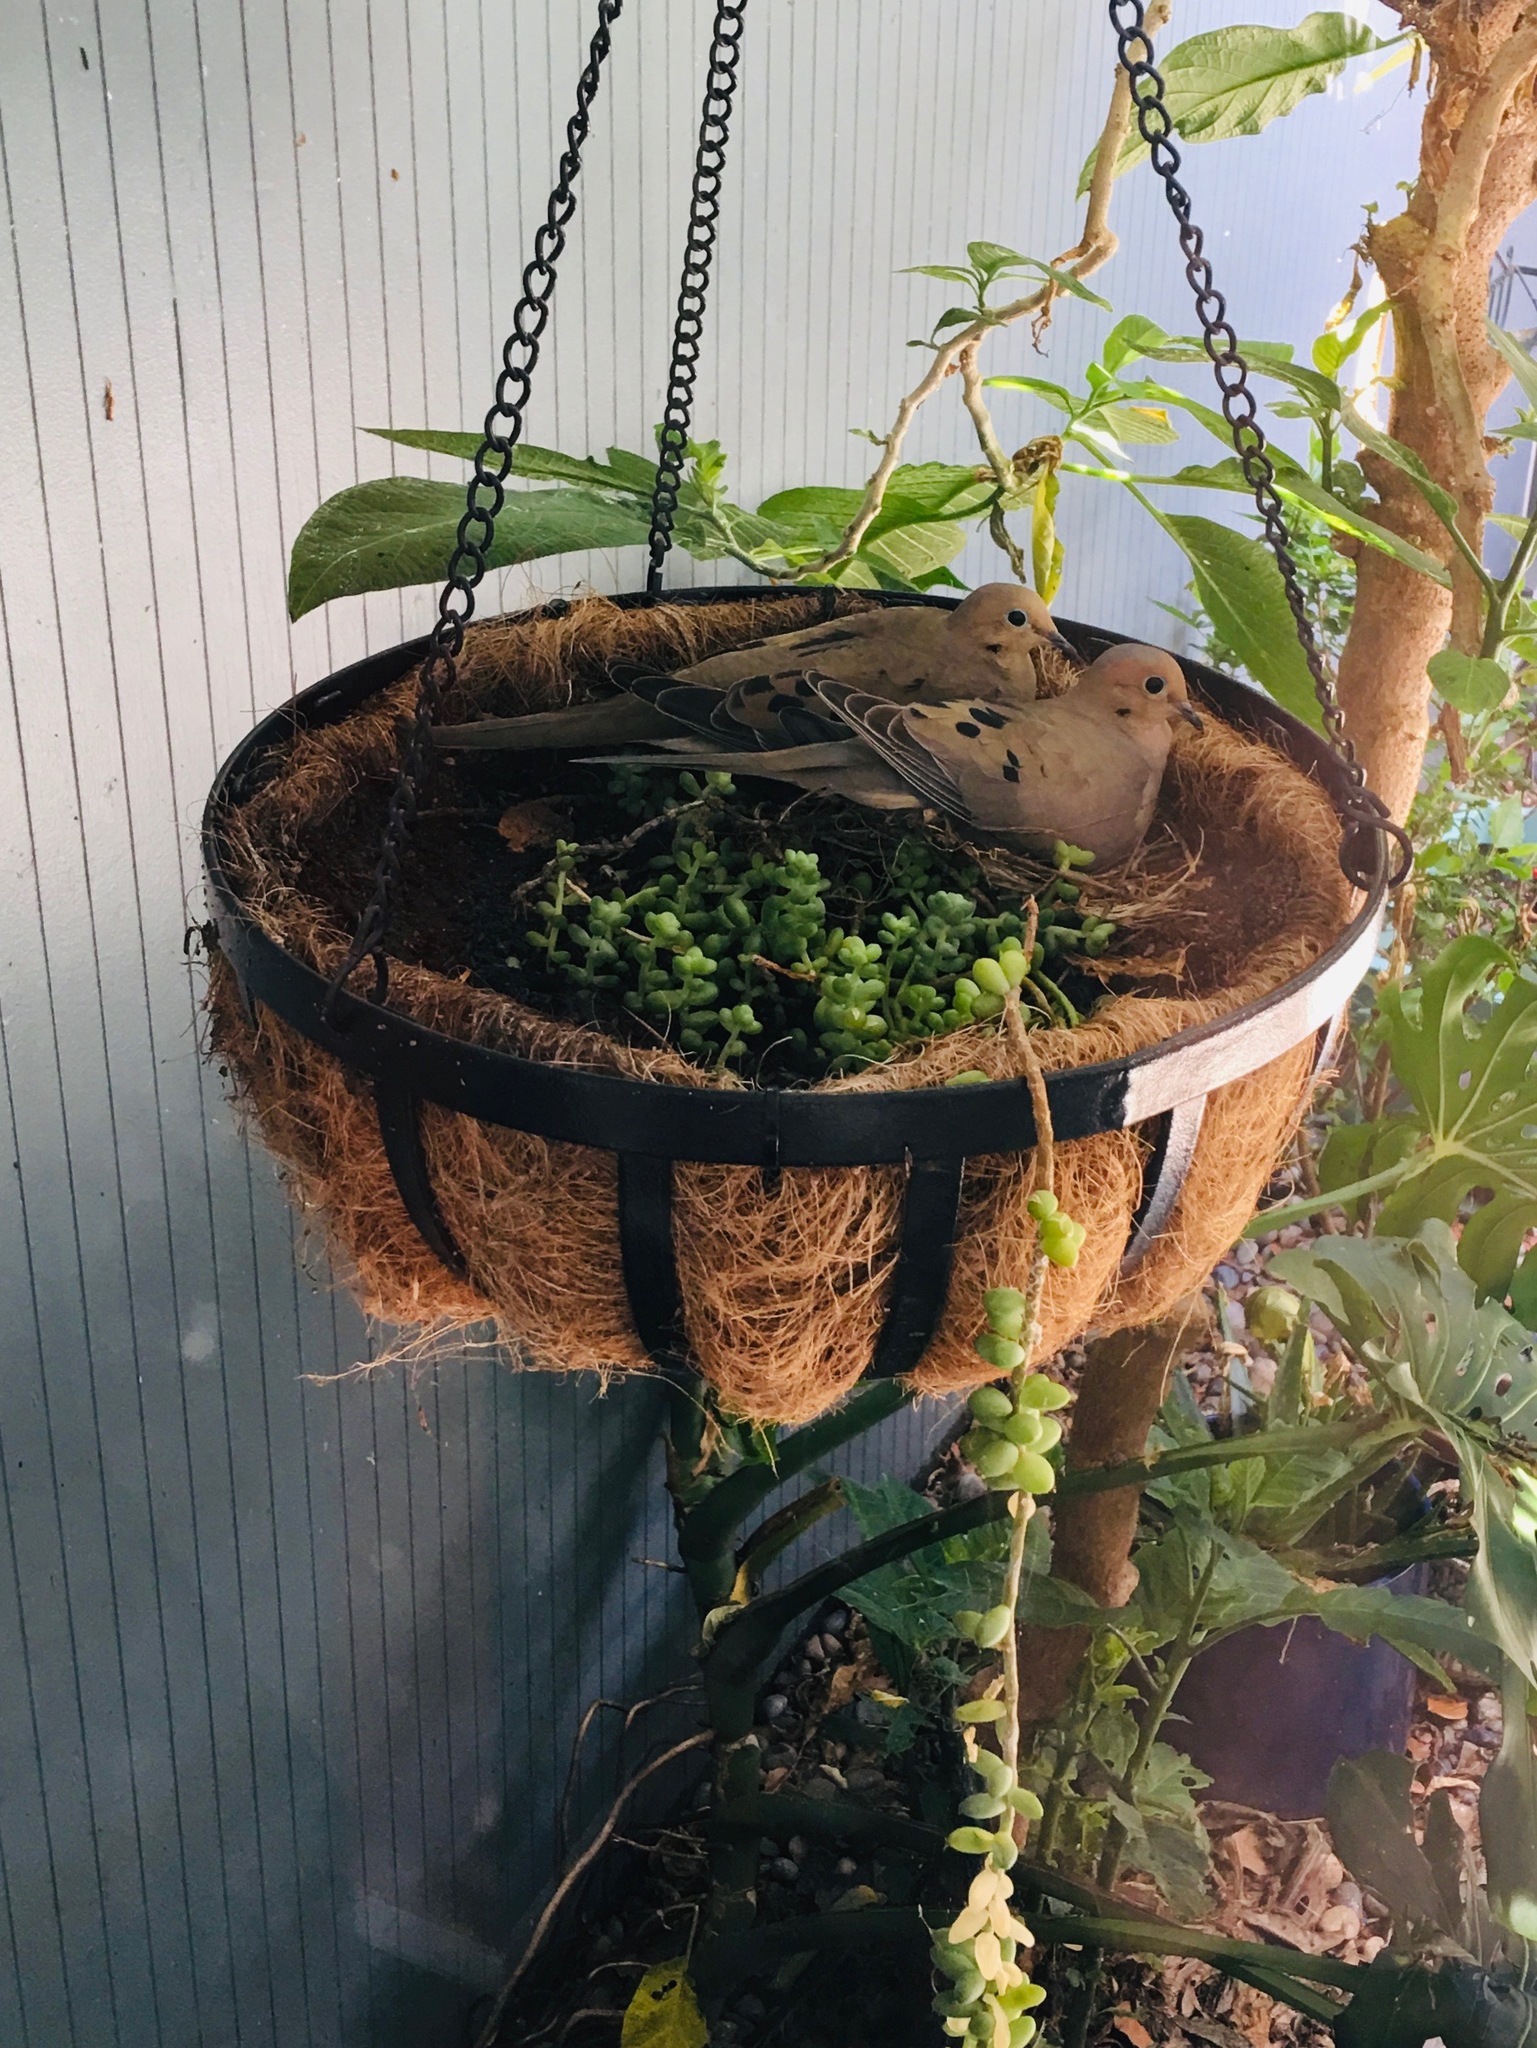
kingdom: Animalia
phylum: Chordata
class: Aves
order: Columbiformes
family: Columbidae
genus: Zenaida
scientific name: Zenaida macroura
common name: Mourning dove
